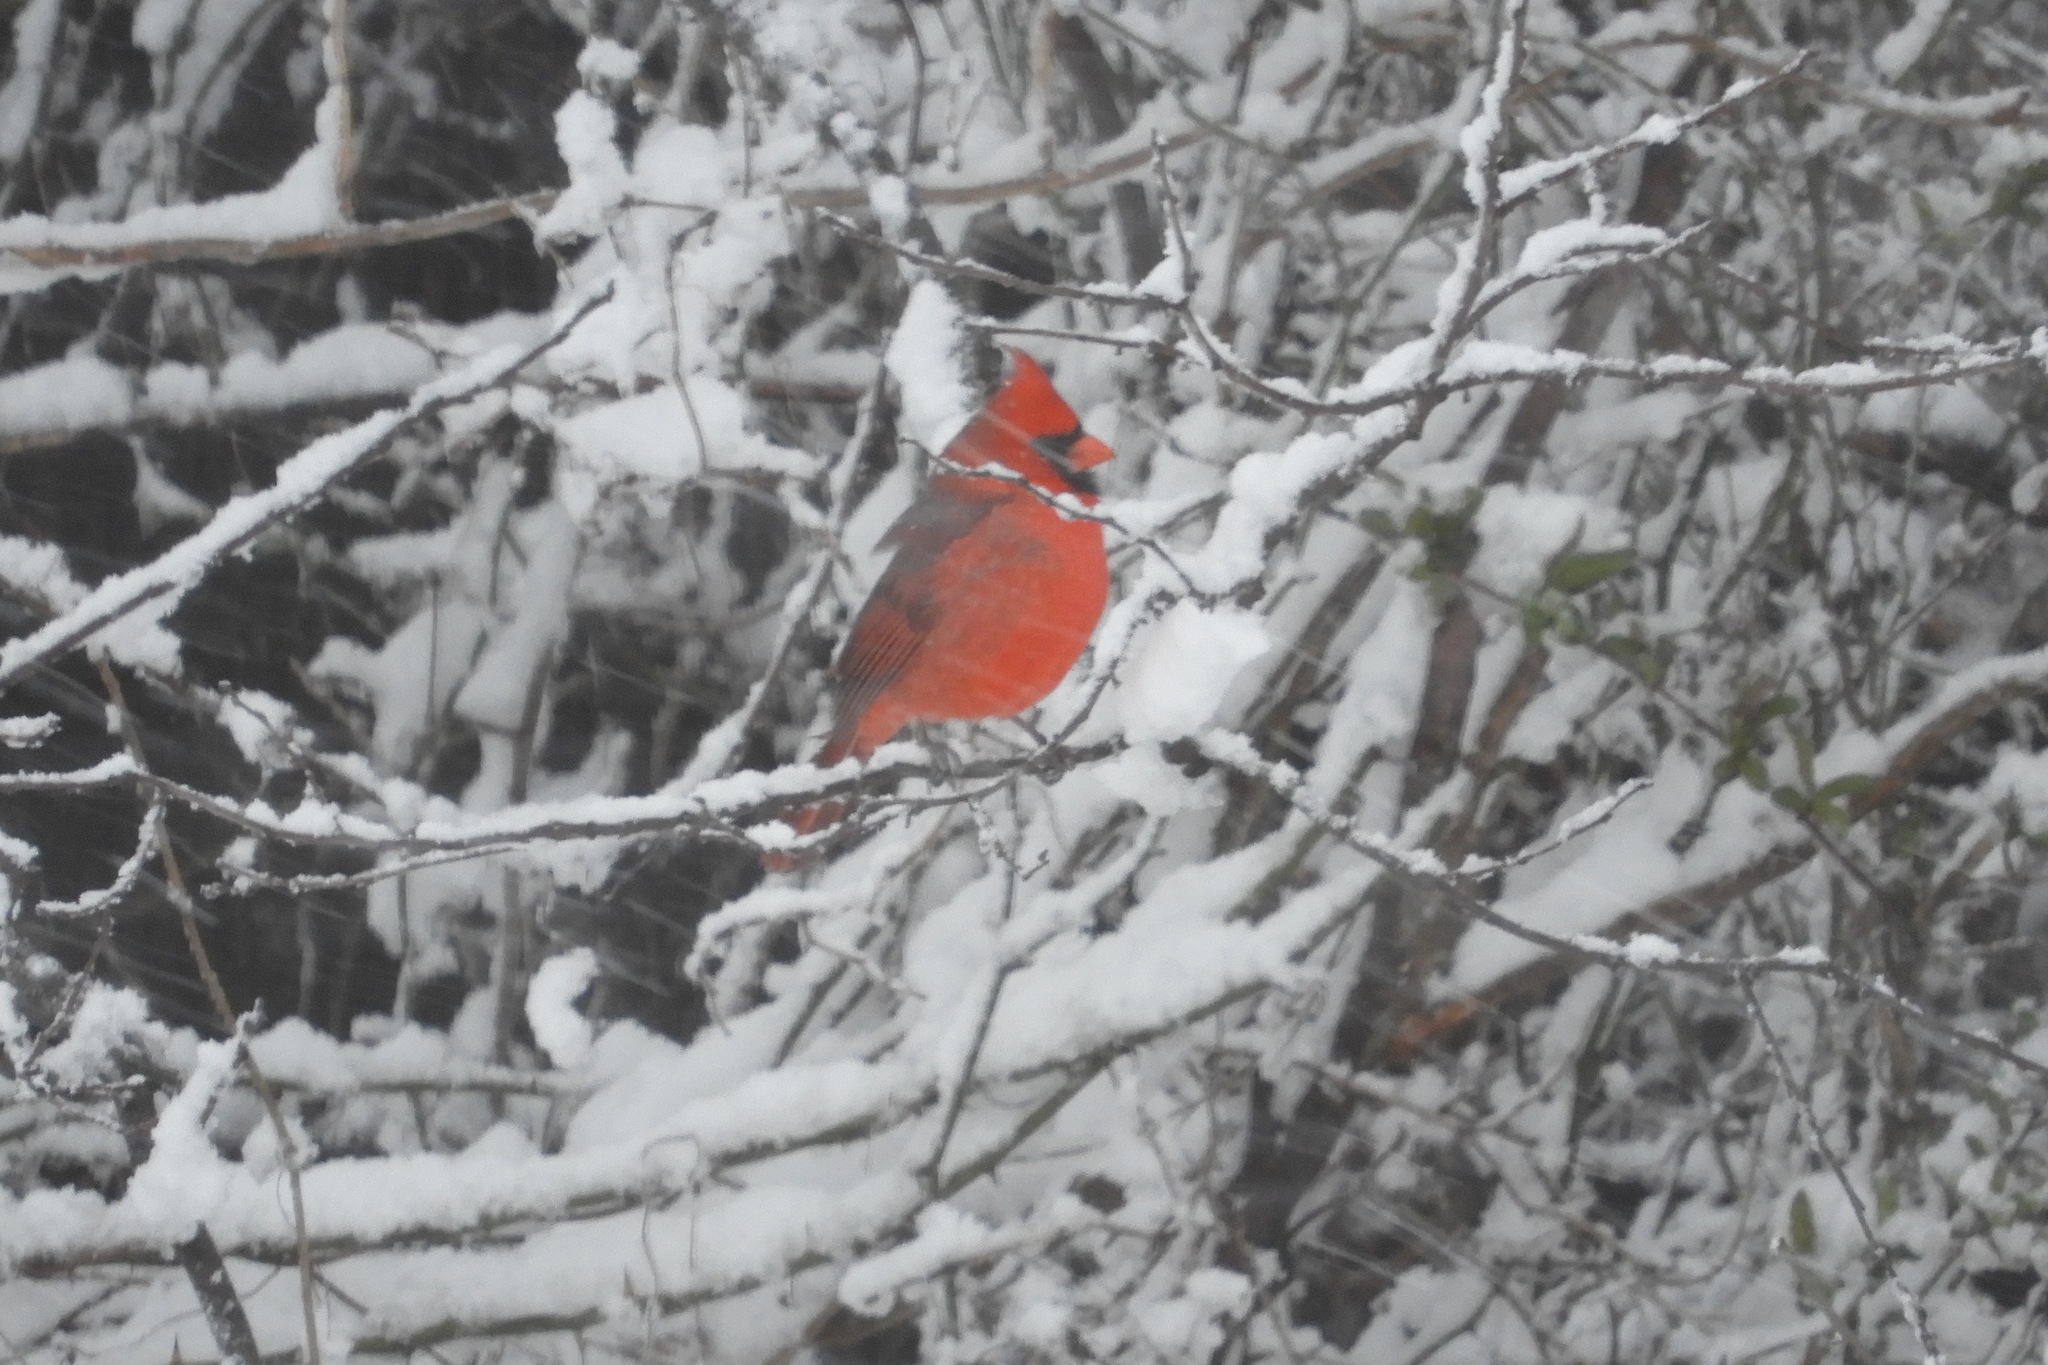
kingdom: Animalia
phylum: Chordata
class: Aves
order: Passeriformes
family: Cardinalidae
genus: Cardinalis
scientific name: Cardinalis cardinalis
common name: Northern cardinal
